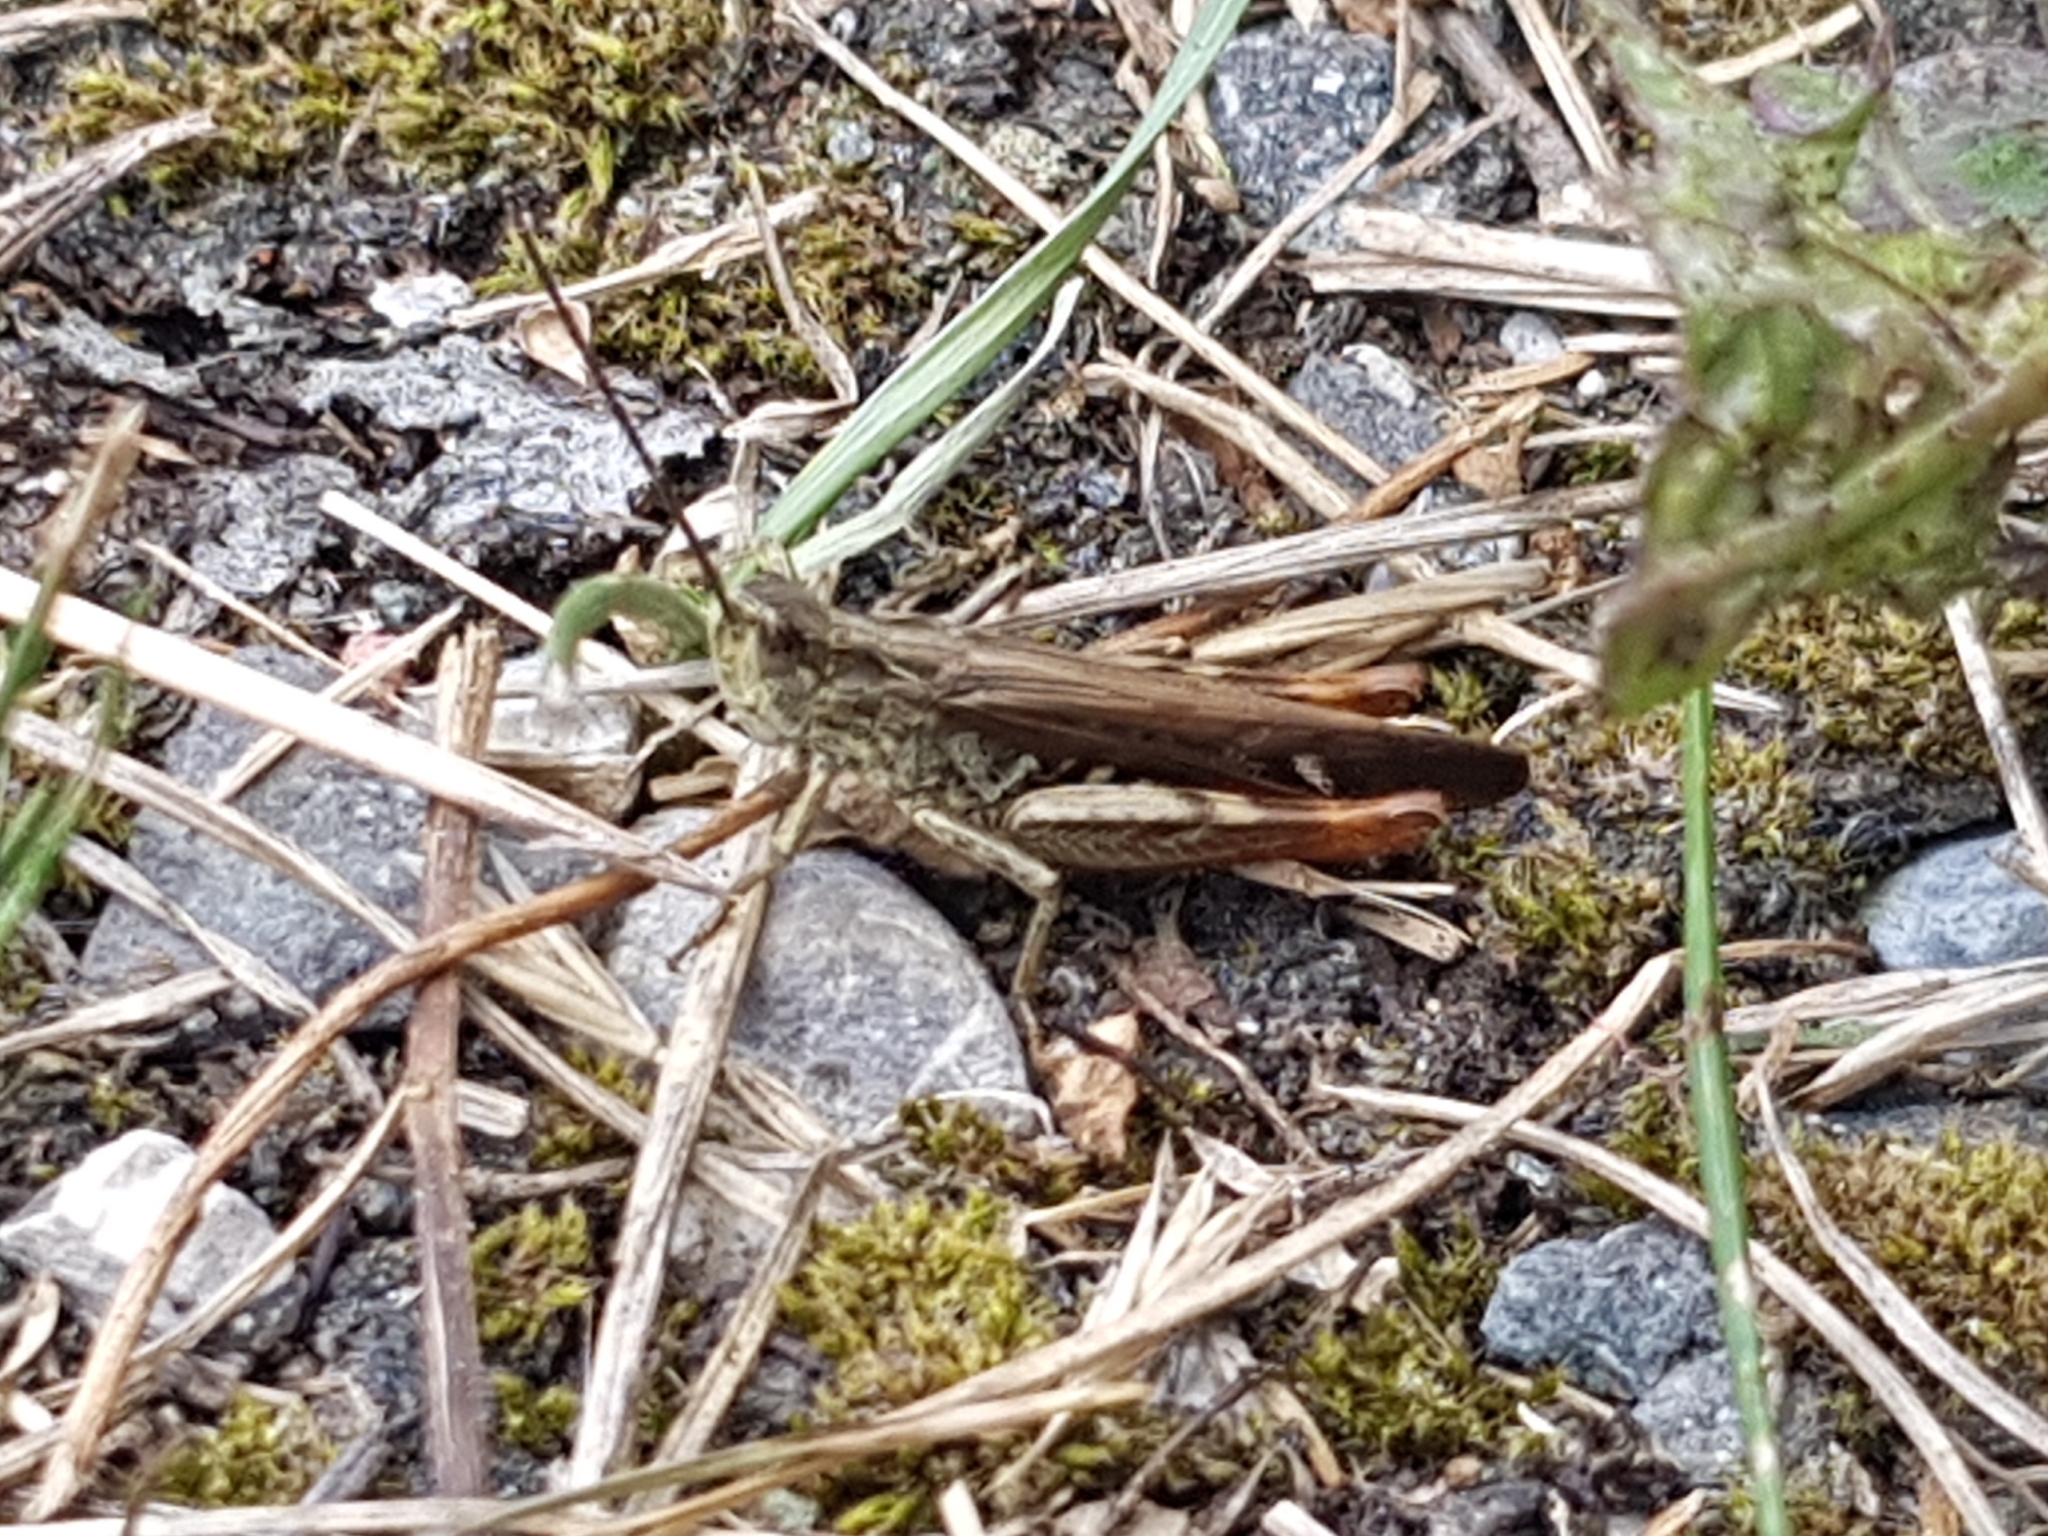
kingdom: Animalia
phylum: Arthropoda
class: Insecta
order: Orthoptera
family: Acrididae
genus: Chorthippus
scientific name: Chorthippus biguttulus
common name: Bow-winged grasshopper
